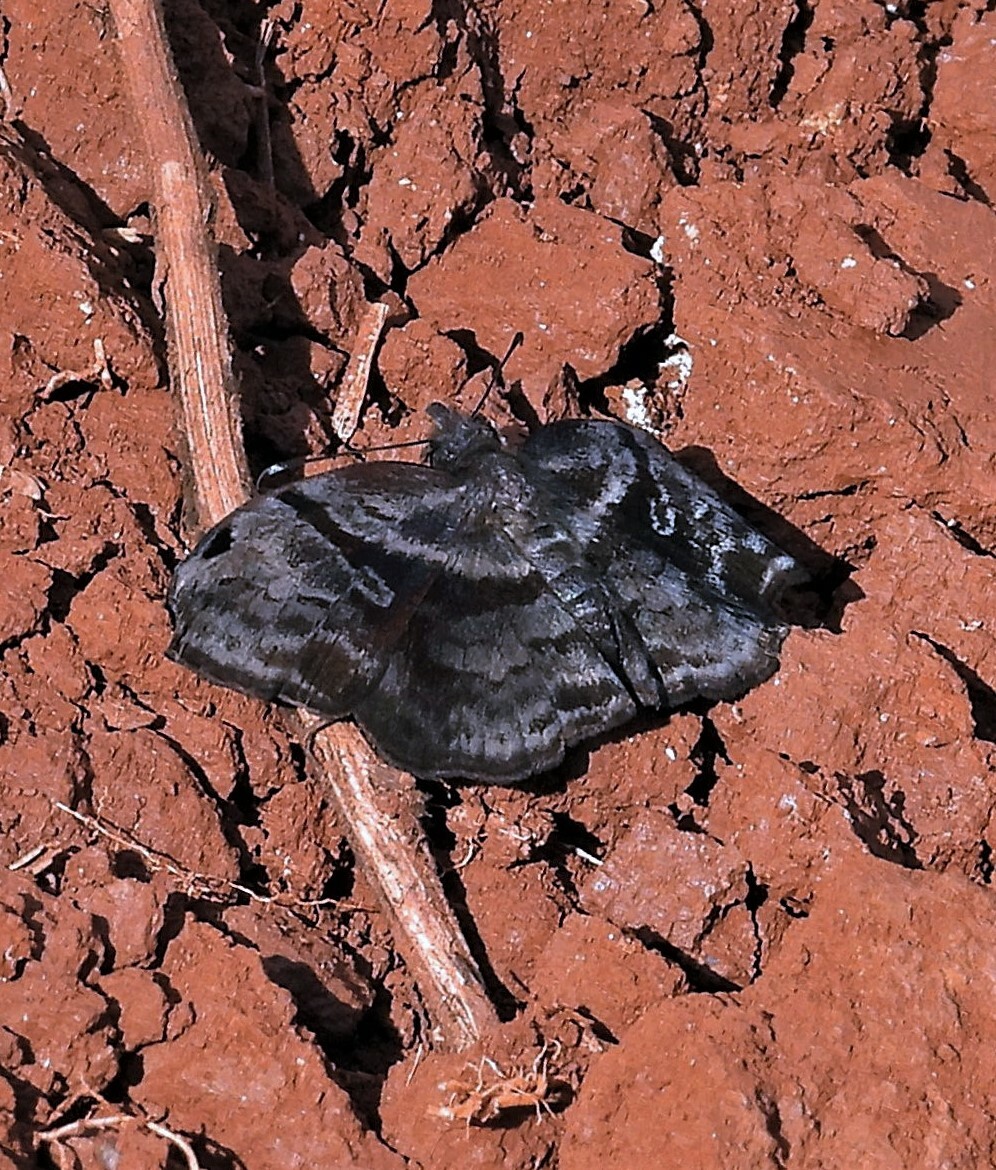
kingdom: Animalia
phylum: Arthropoda
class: Insecta
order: Lepidoptera
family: Hesperiidae
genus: Helias
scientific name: Helias phalaenoides
